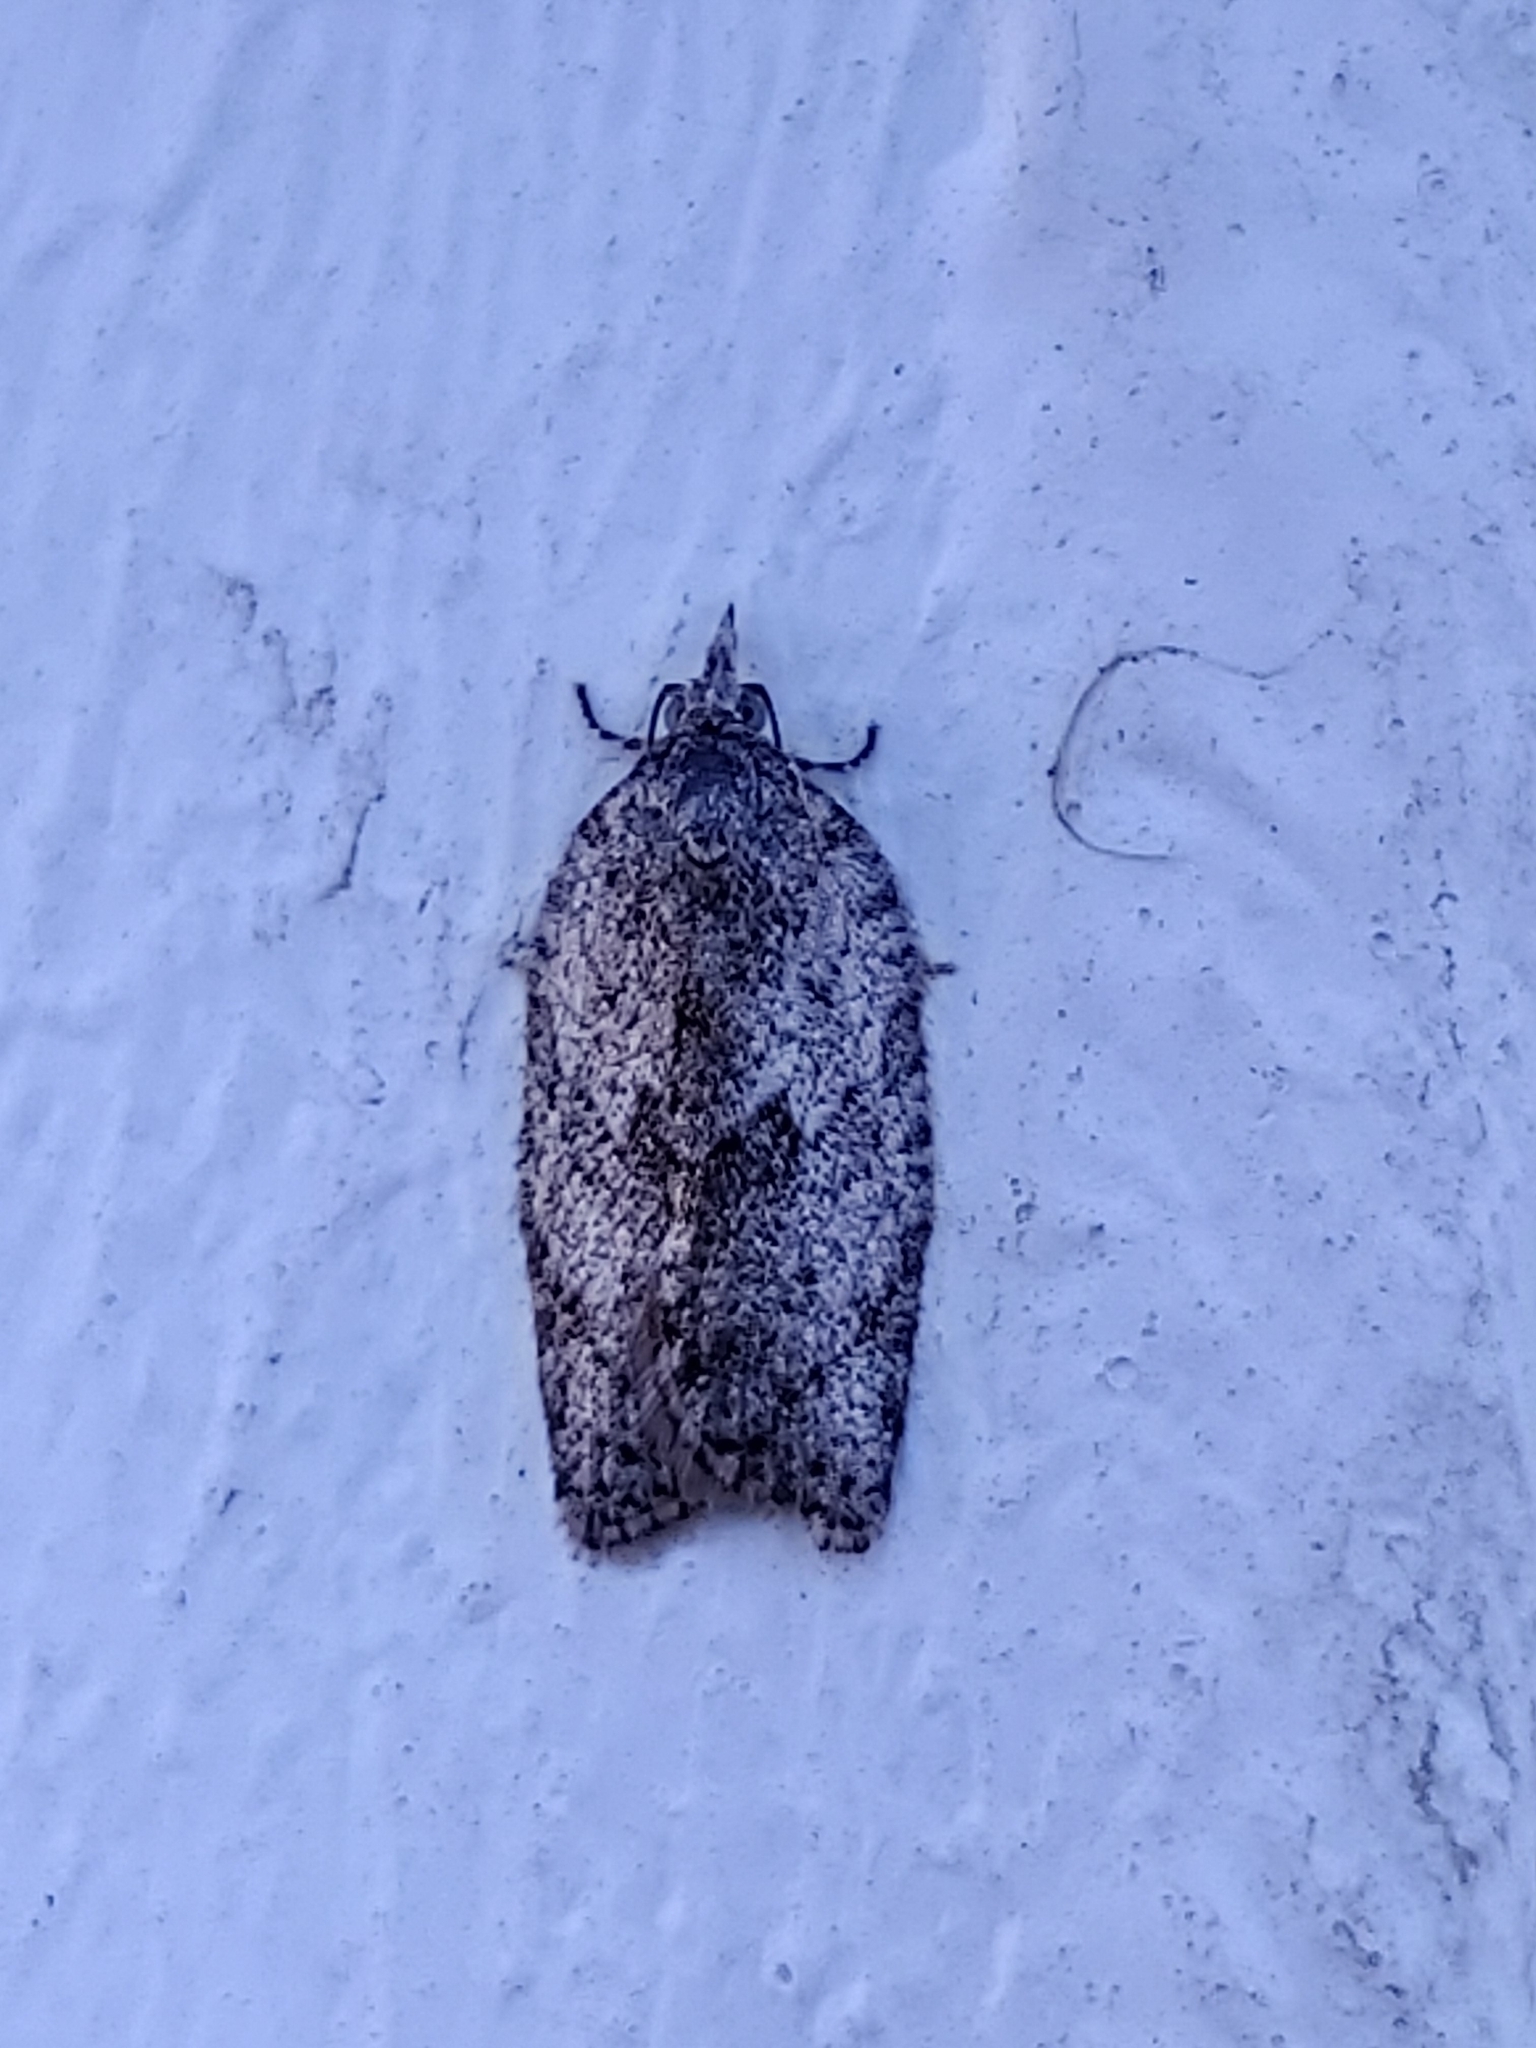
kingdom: Animalia
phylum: Arthropoda
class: Insecta
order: Lepidoptera
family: Tortricidae
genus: Isotenes
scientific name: Isotenes miserana
